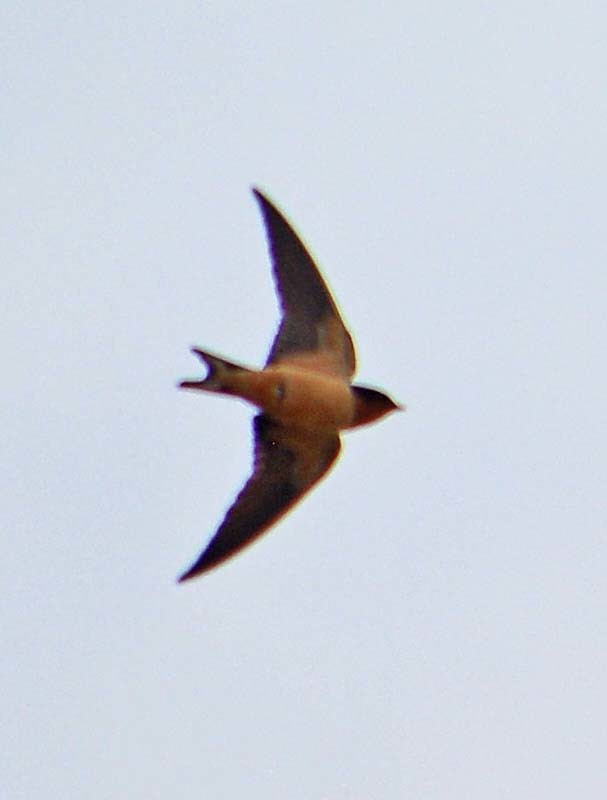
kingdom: Animalia
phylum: Chordata
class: Aves
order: Passeriformes
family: Hirundinidae
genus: Hirundo
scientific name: Hirundo rustica
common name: Barn swallow
